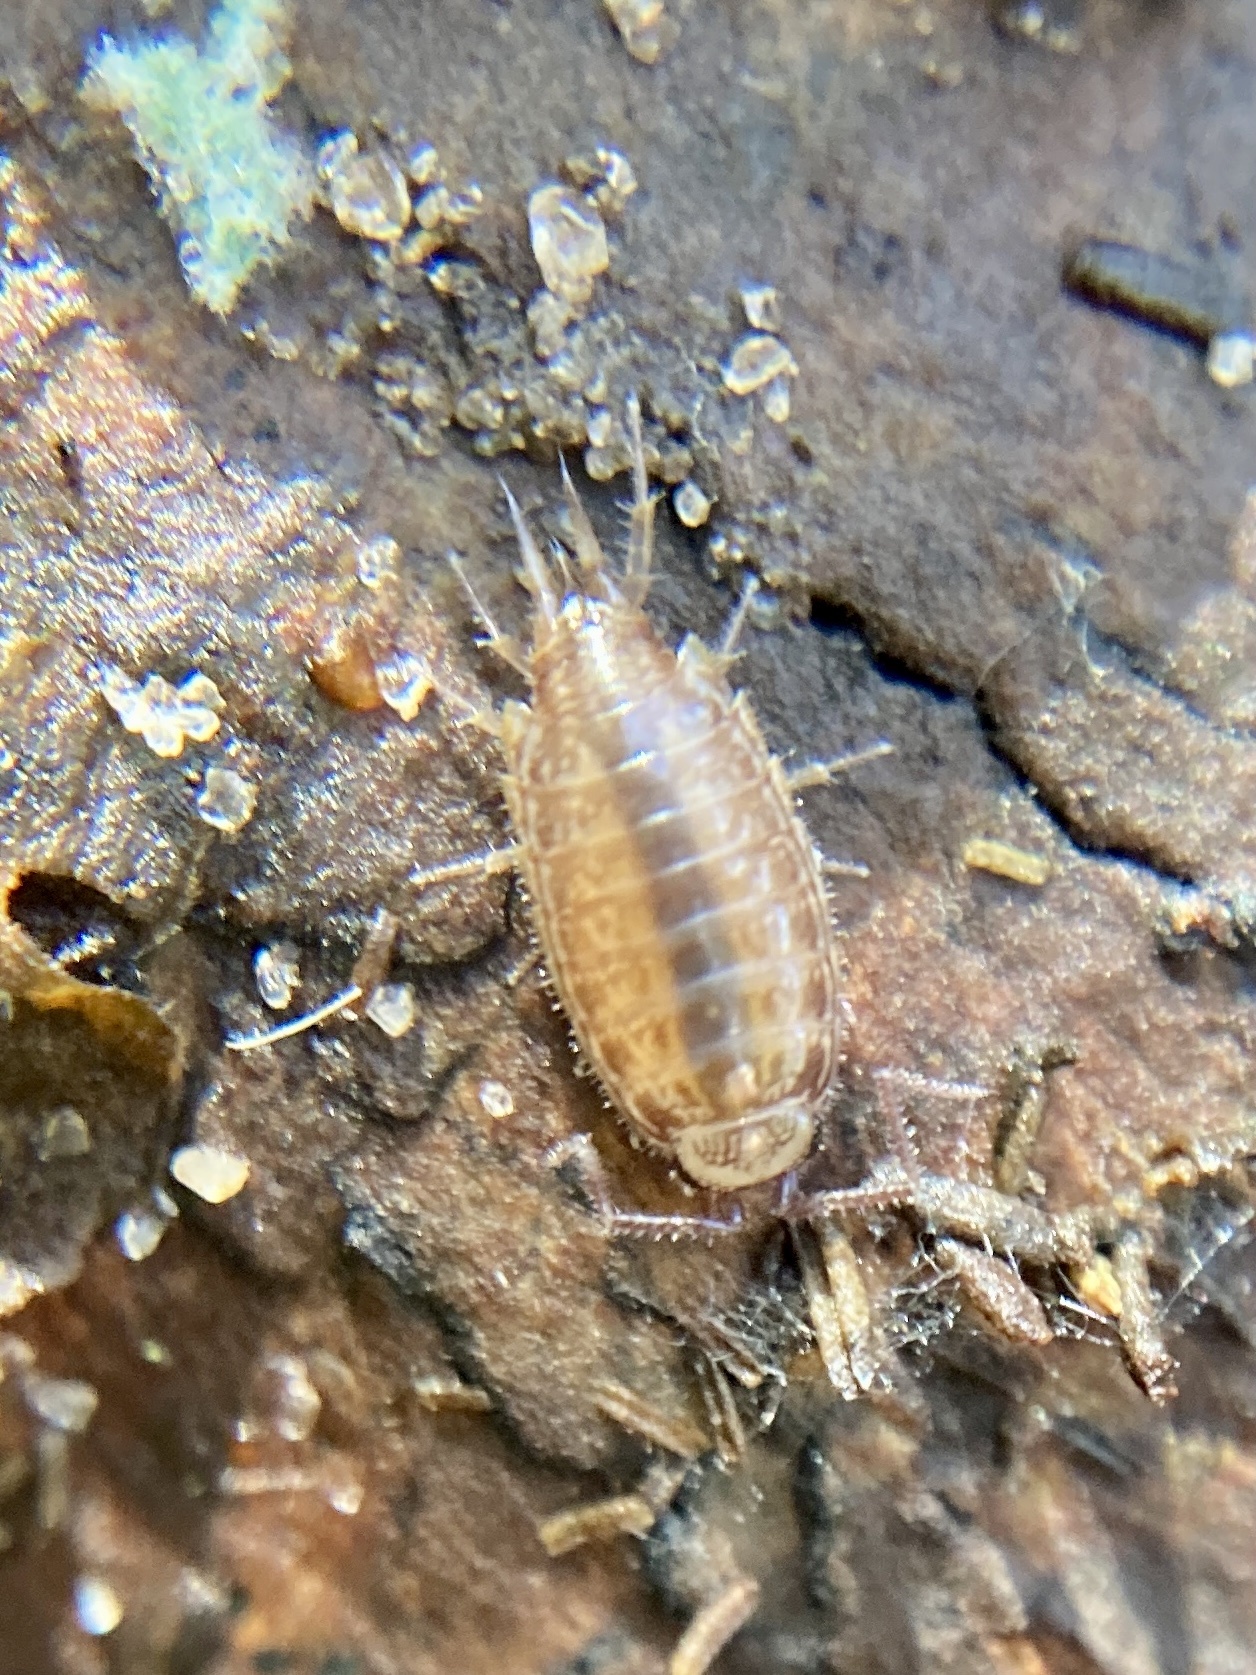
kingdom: Animalia
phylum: Arthropoda
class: Malacostraca
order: Isopoda
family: Philosciidae
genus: Atlantoscia
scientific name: Atlantoscia floridana
